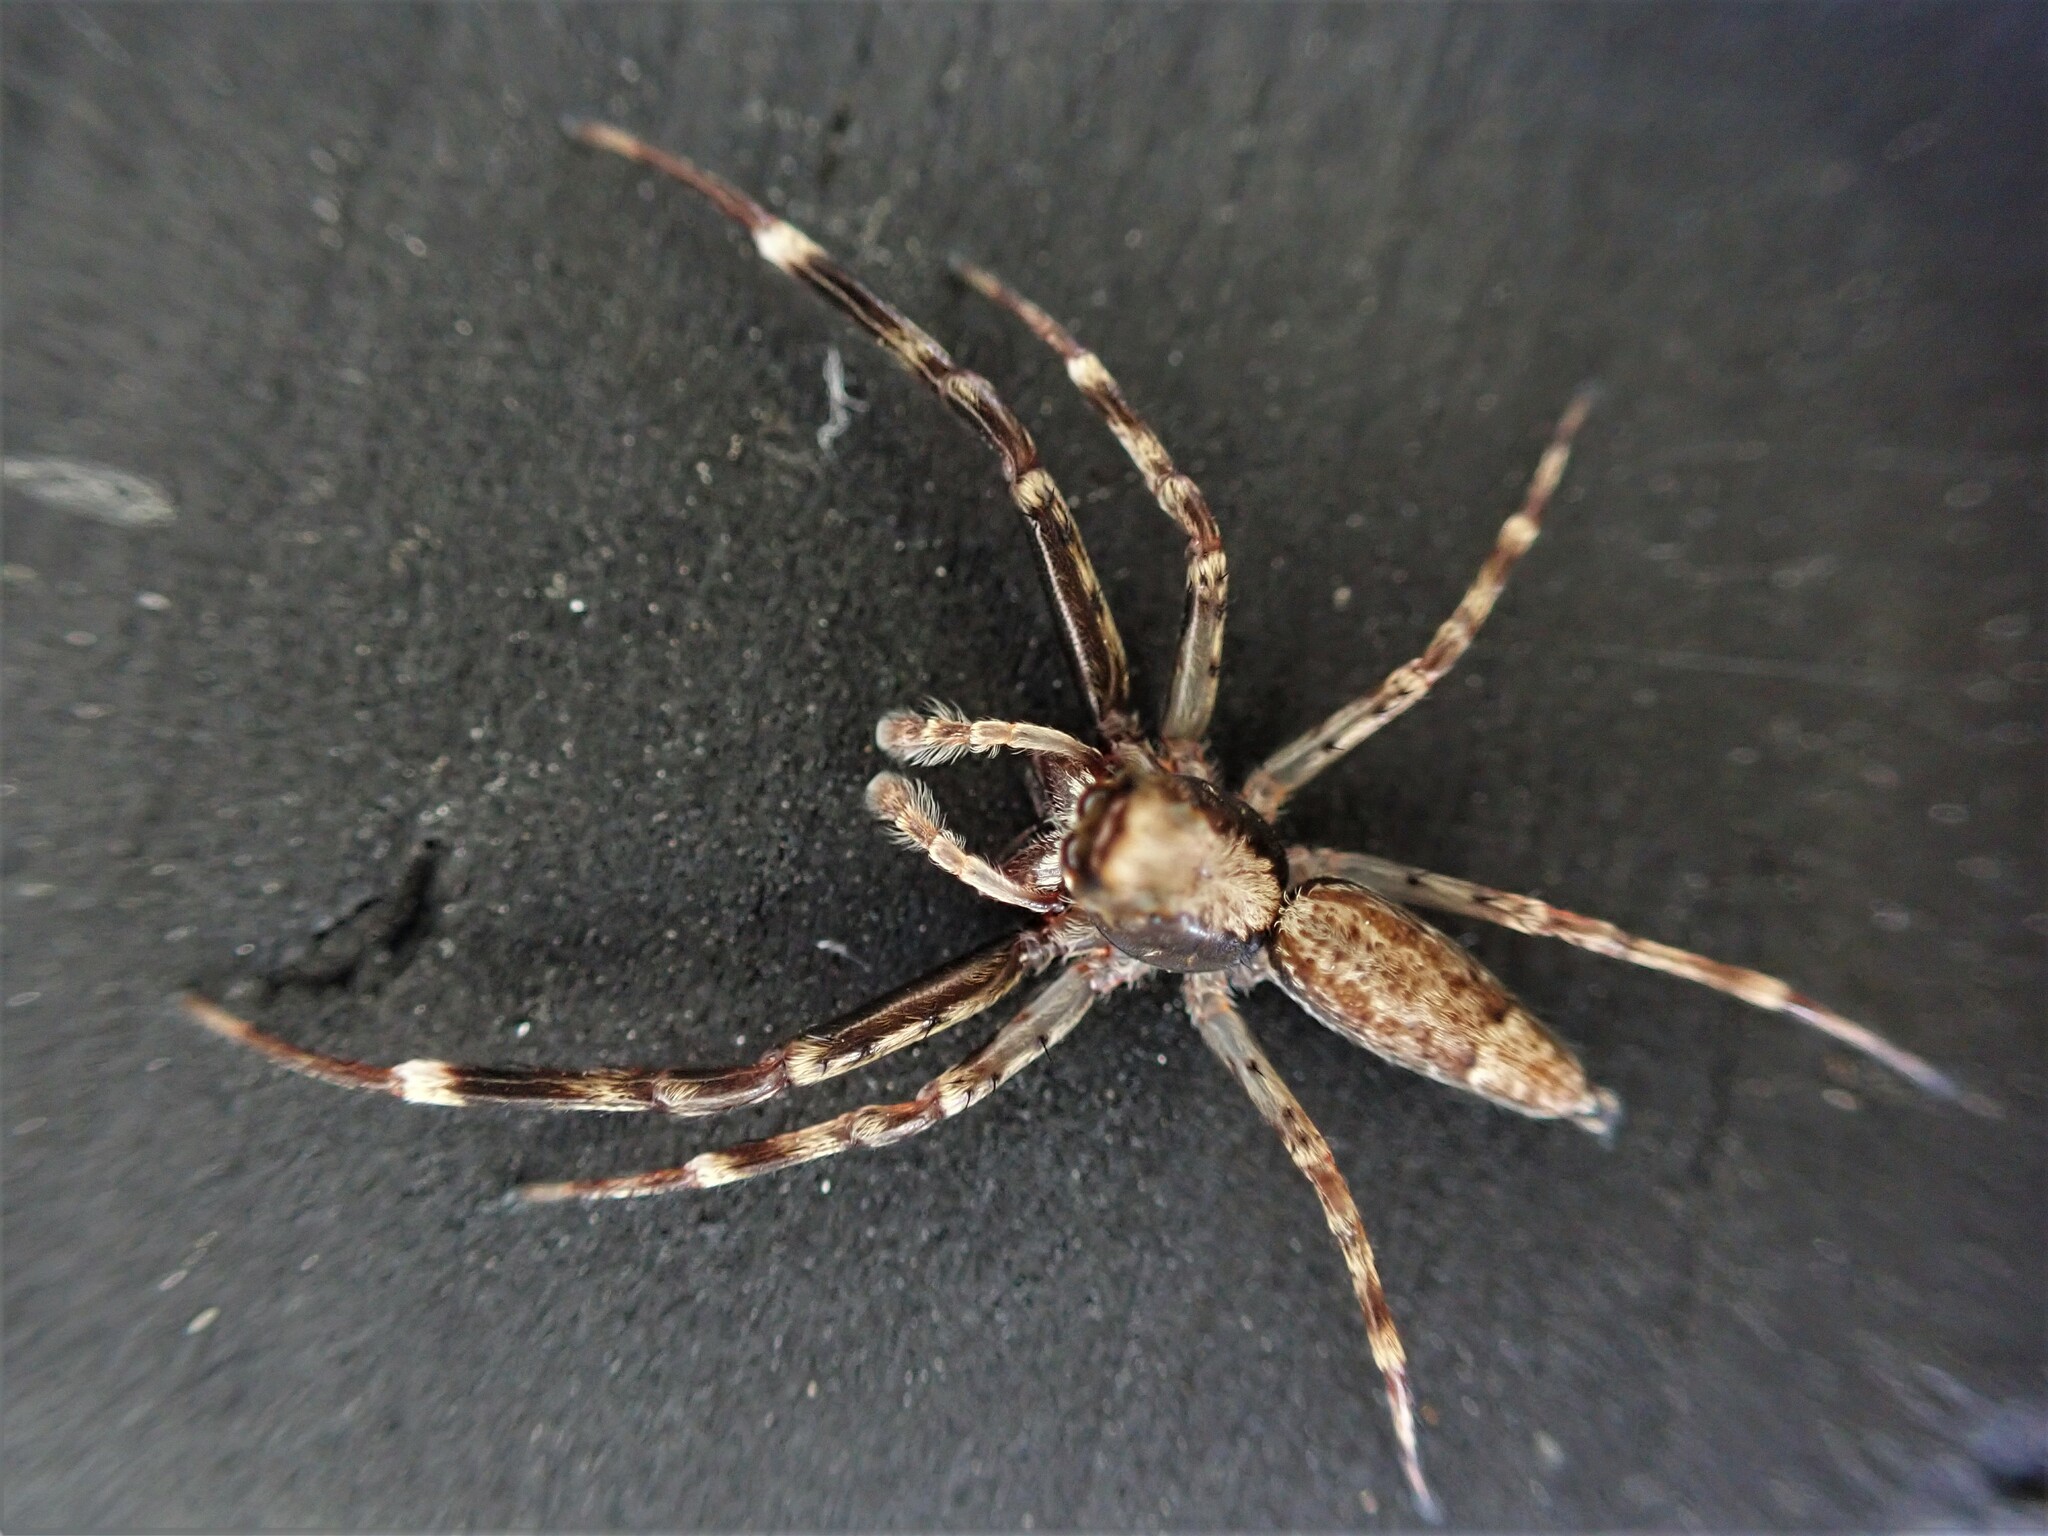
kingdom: Animalia
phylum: Arthropoda
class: Arachnida
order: Araneae
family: Salticidae
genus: Helpis
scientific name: Helpis minitabunda
